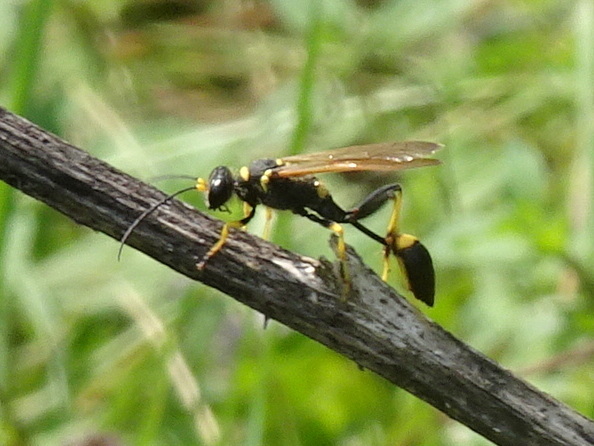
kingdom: Animalia
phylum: Arthropoda
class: Insecta
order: Hymenoptera
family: Sphecidae
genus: Sceliphron
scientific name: Sceliphron caementarium
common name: Mud dauber
